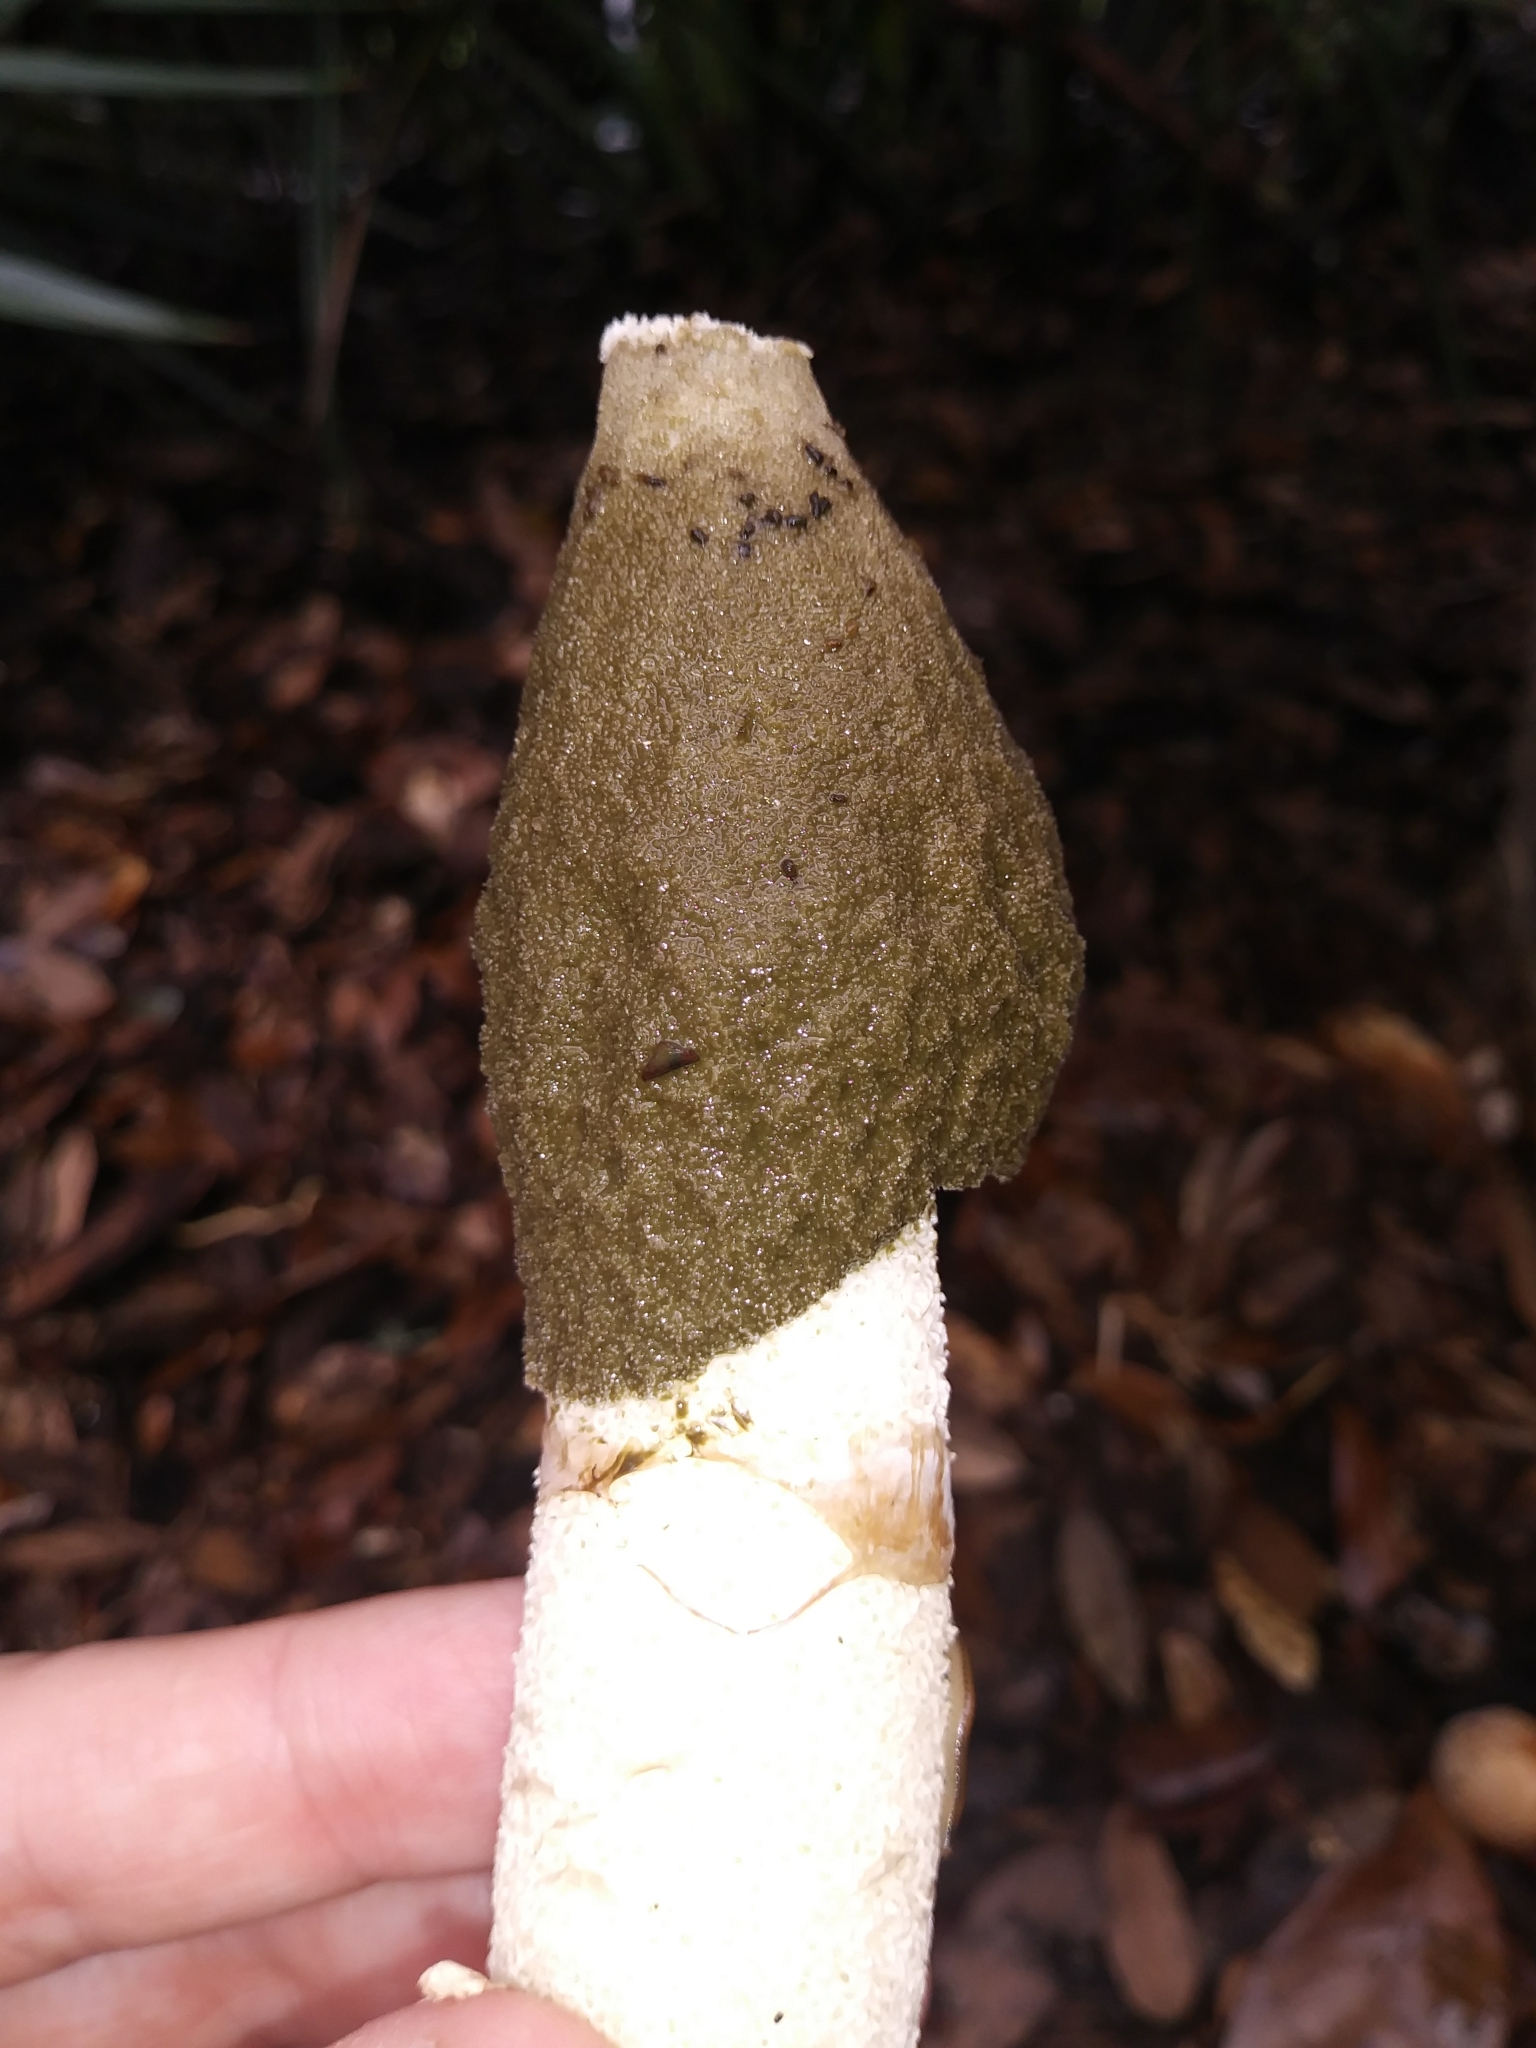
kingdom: Fungi
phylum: Basidiomycota
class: Agaricomycetes
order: Phallales
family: Phallaceae
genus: Phallus
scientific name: Phallus ravenelii
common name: Ravenel's stinkhorn
